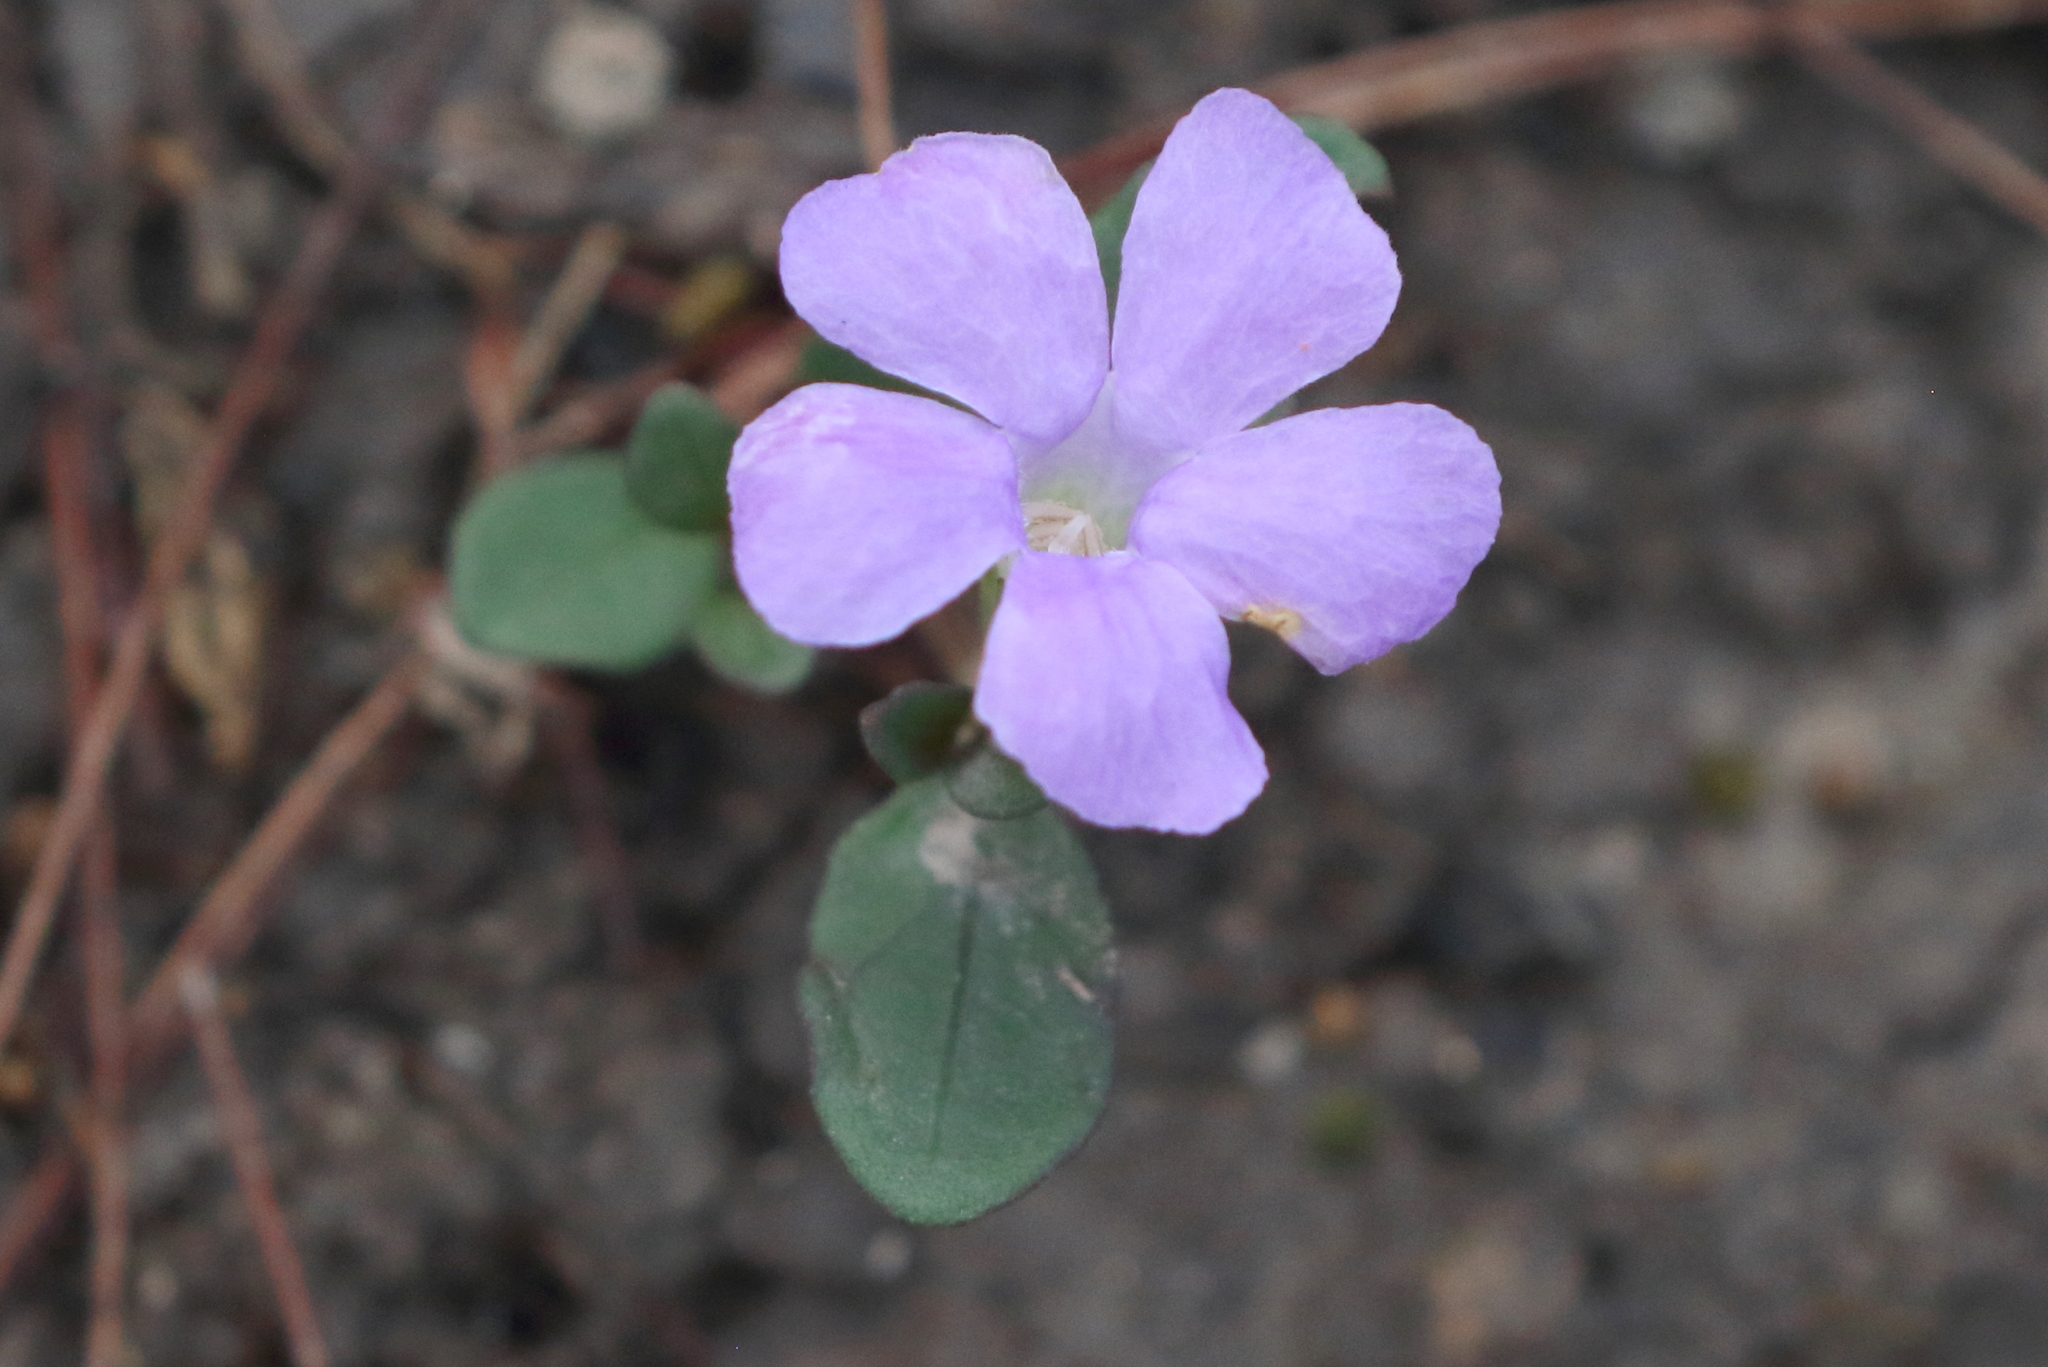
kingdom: Plantae
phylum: Tracheophyta
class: Magnoliopsida
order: Lamiales
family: Acanthaceae
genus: Brunoniella
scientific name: Brunoniella australis
